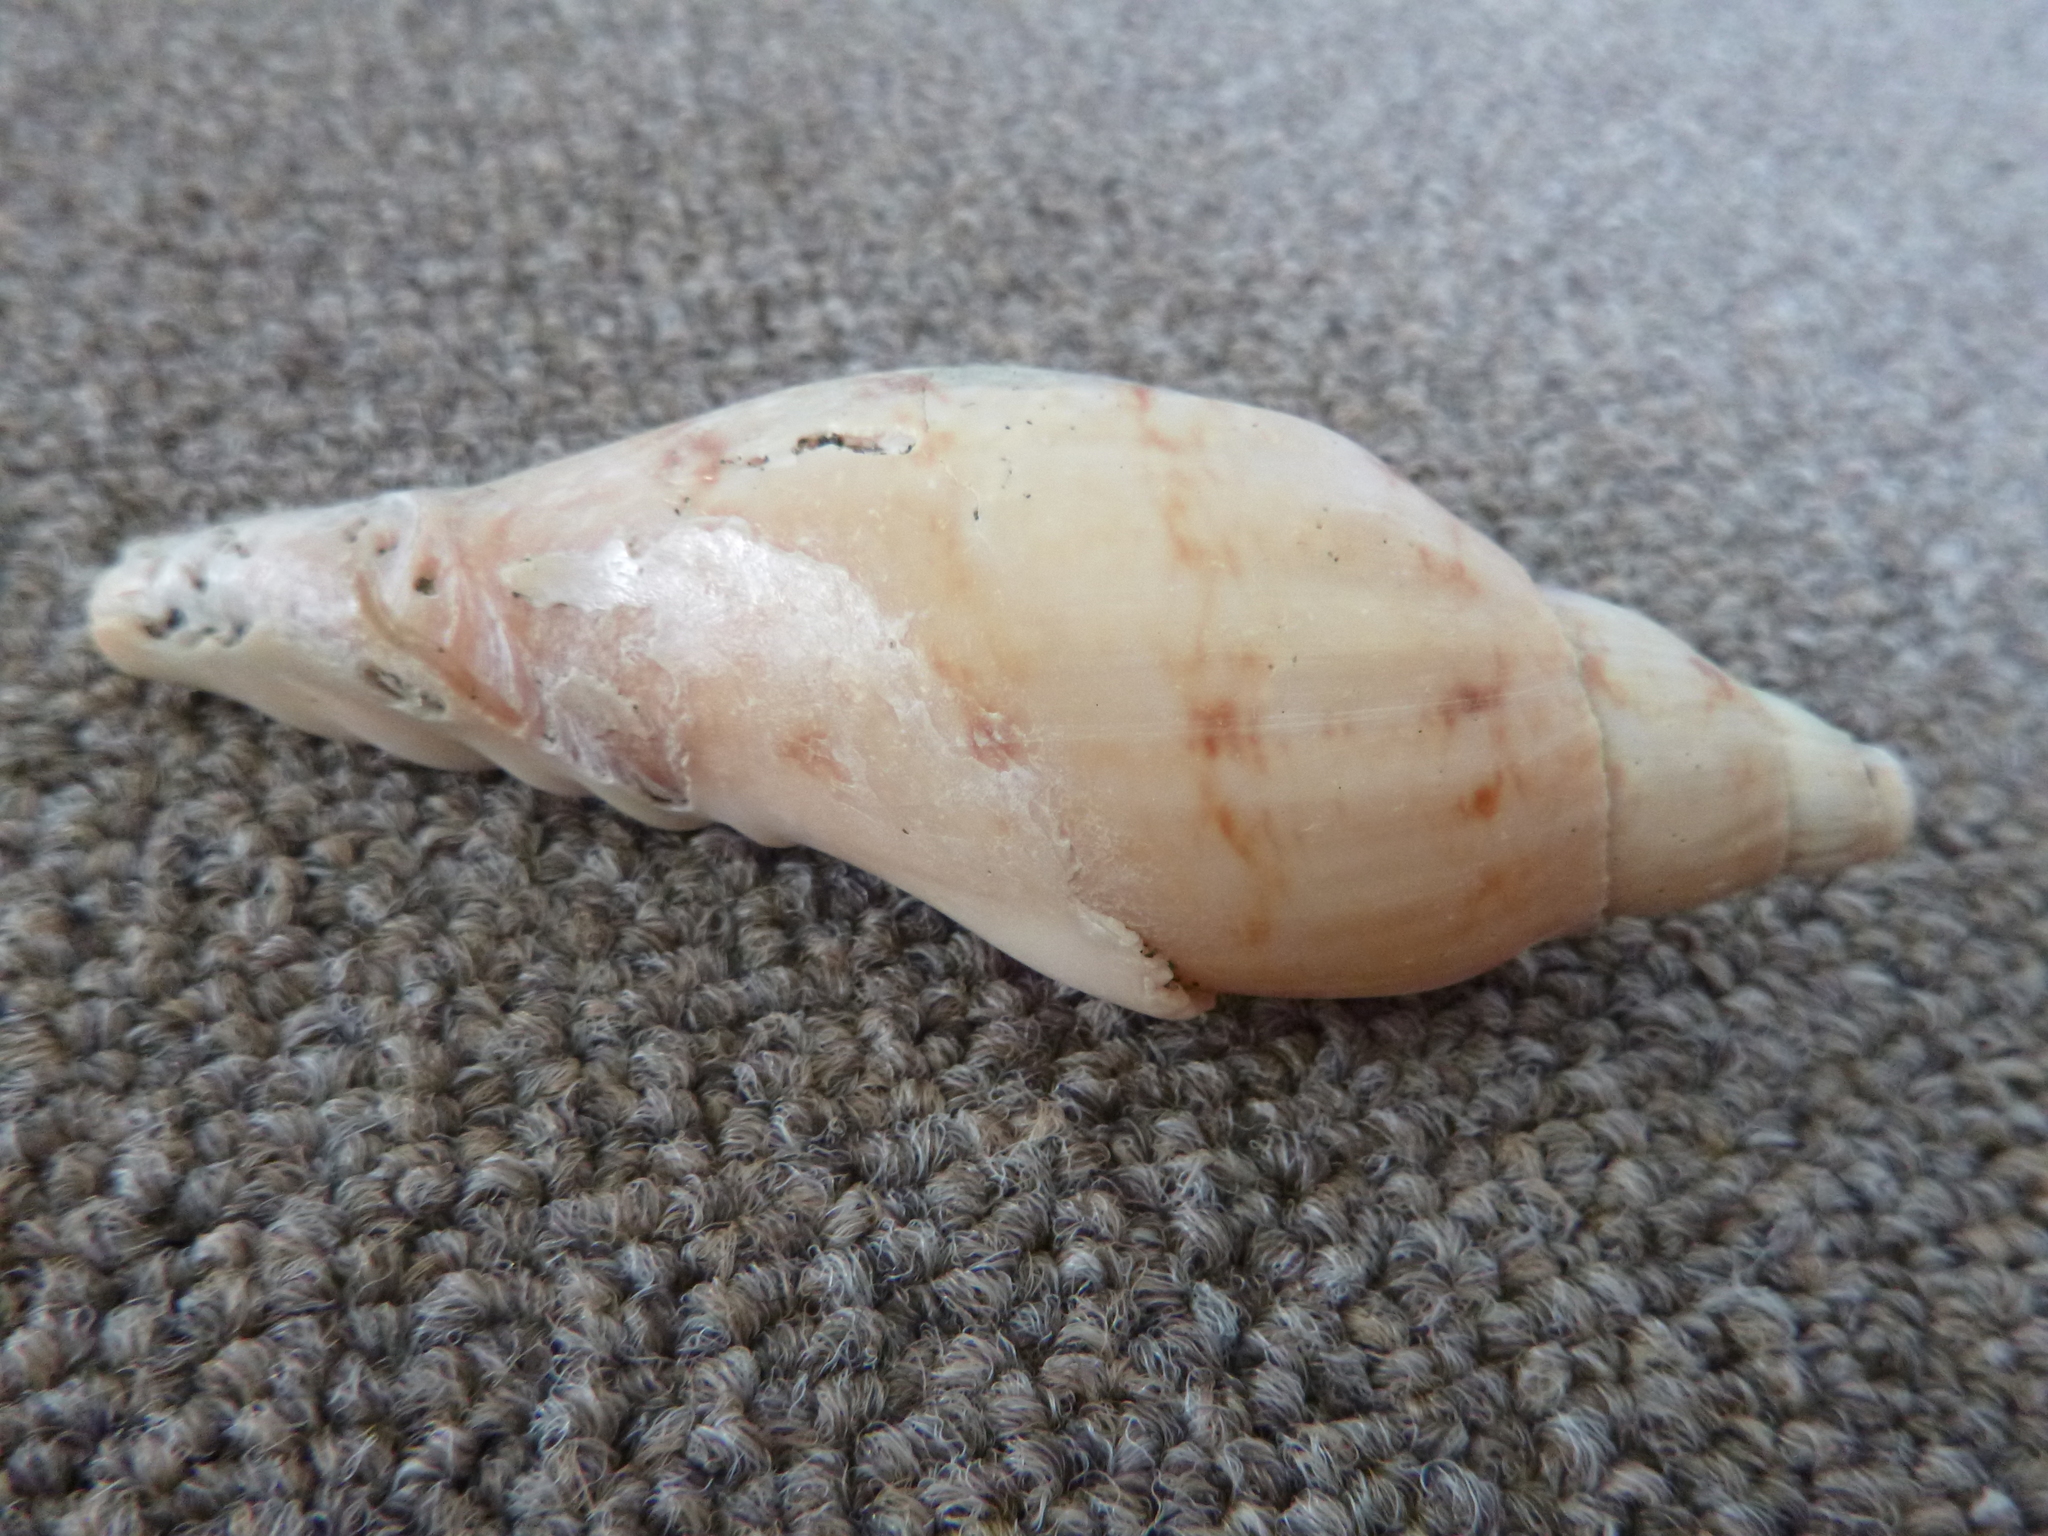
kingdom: Animalia
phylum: Mollusca
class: Gastropoda
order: Neogastropoda
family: Volutidae
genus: Alcithoe
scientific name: Alcithoe arabica
